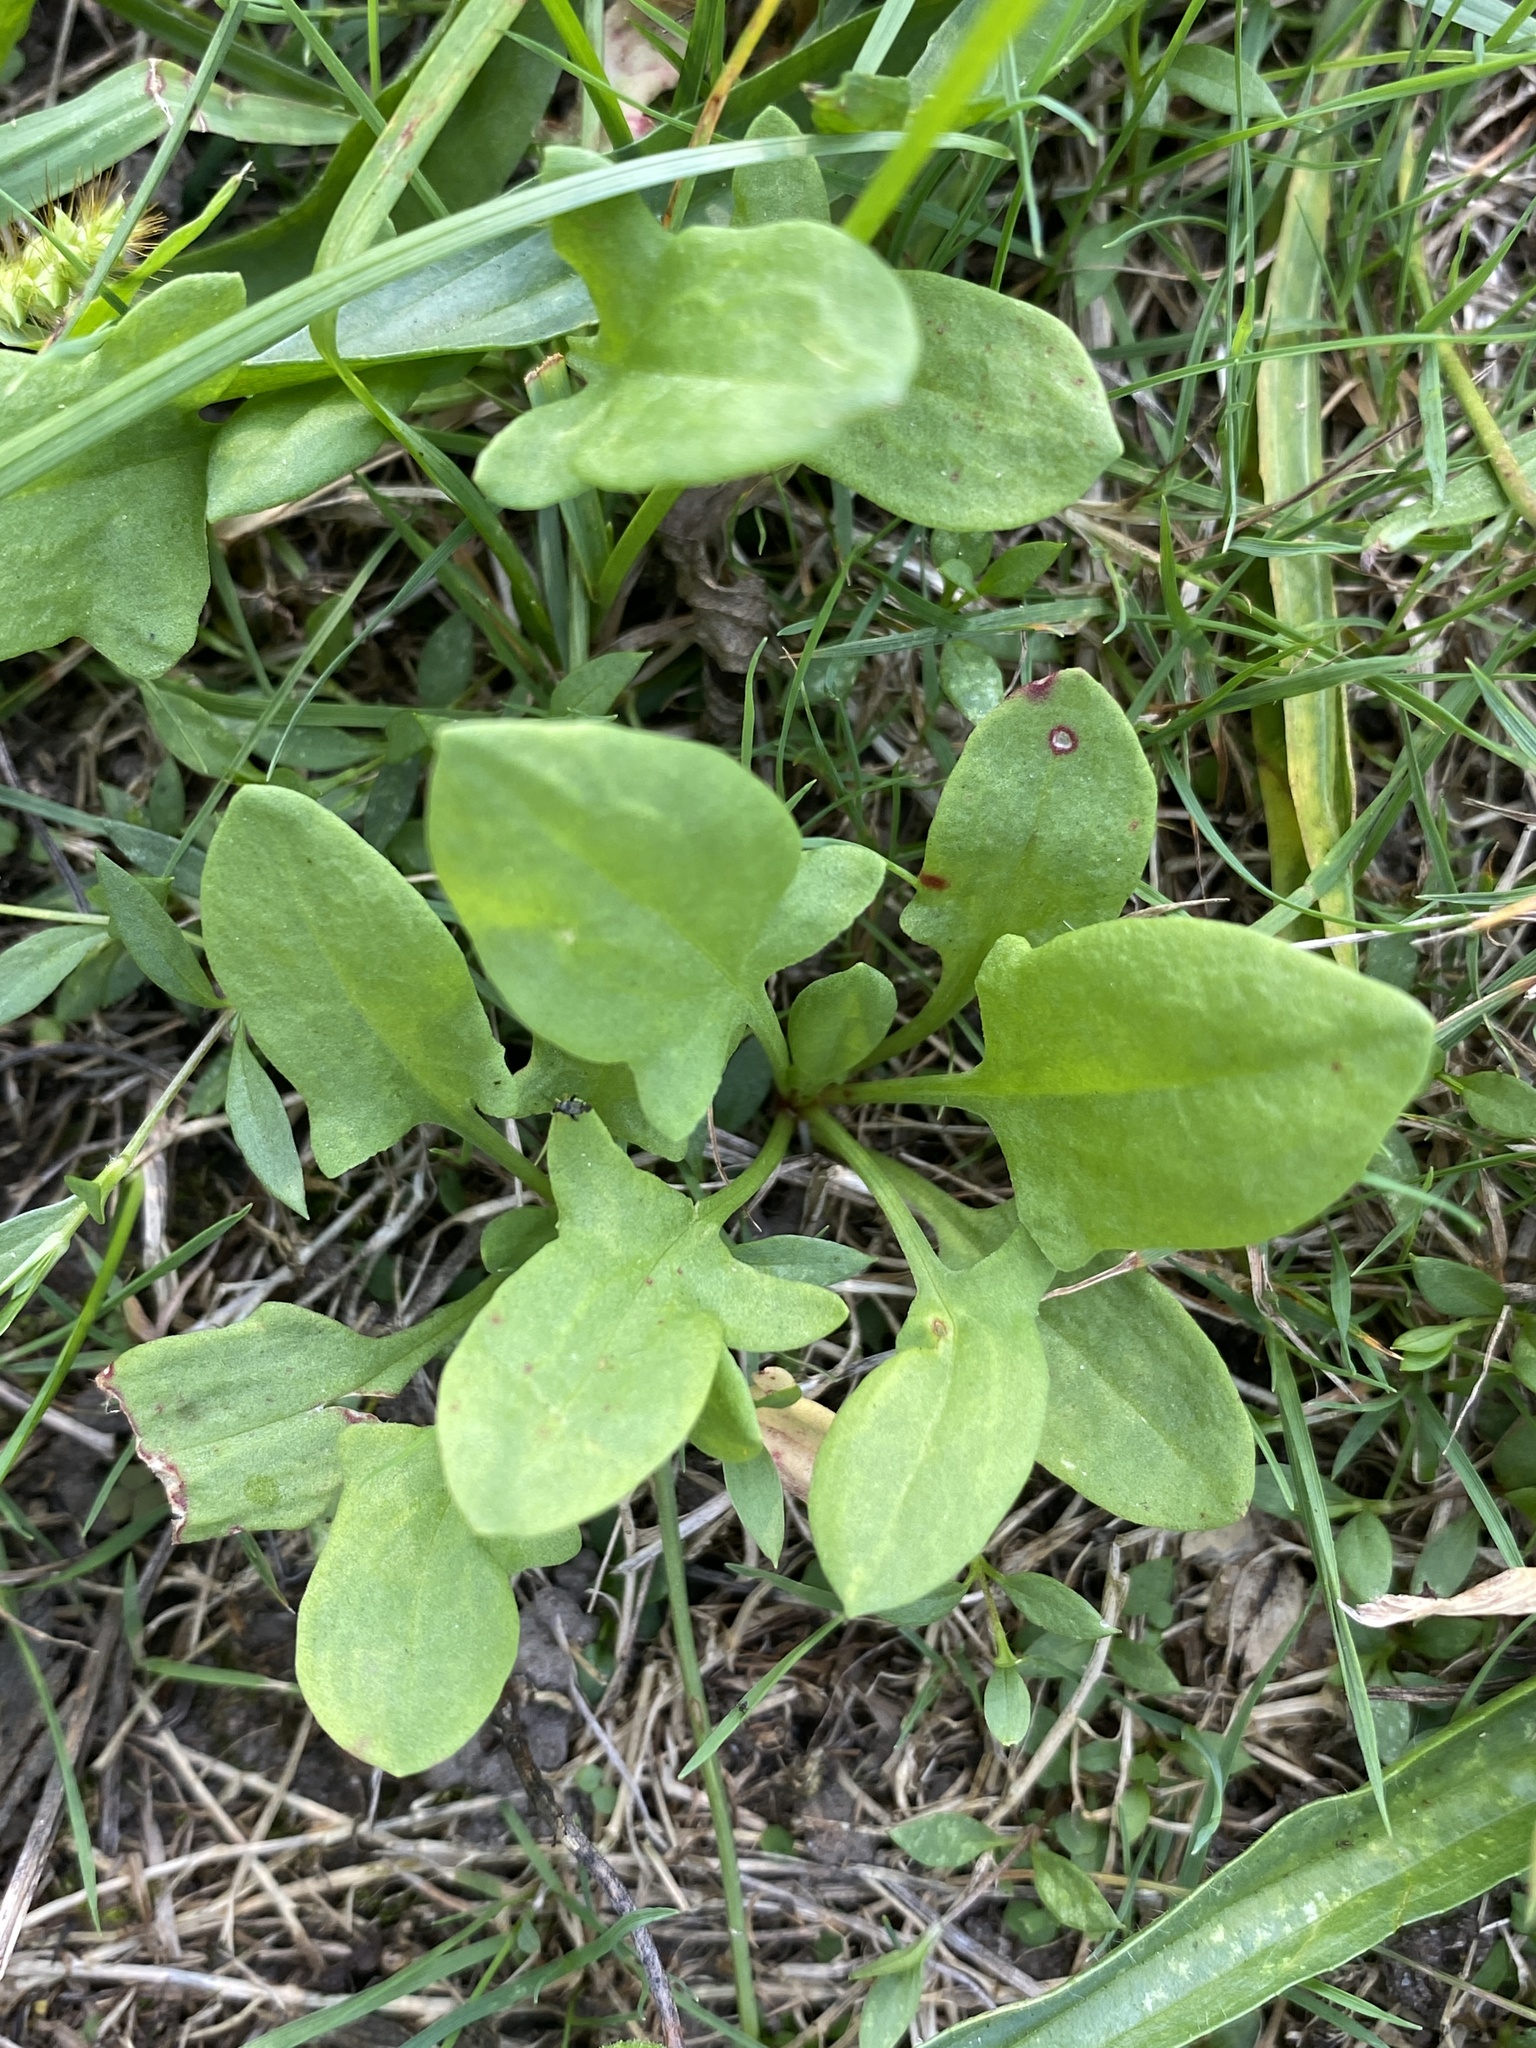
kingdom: Plantae
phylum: Tracheophyta
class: Magnoliopsida
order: Caryophyllales
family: Polygonaceae
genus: Rumex
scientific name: Rumex acetosella
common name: Common sheep sorrel
